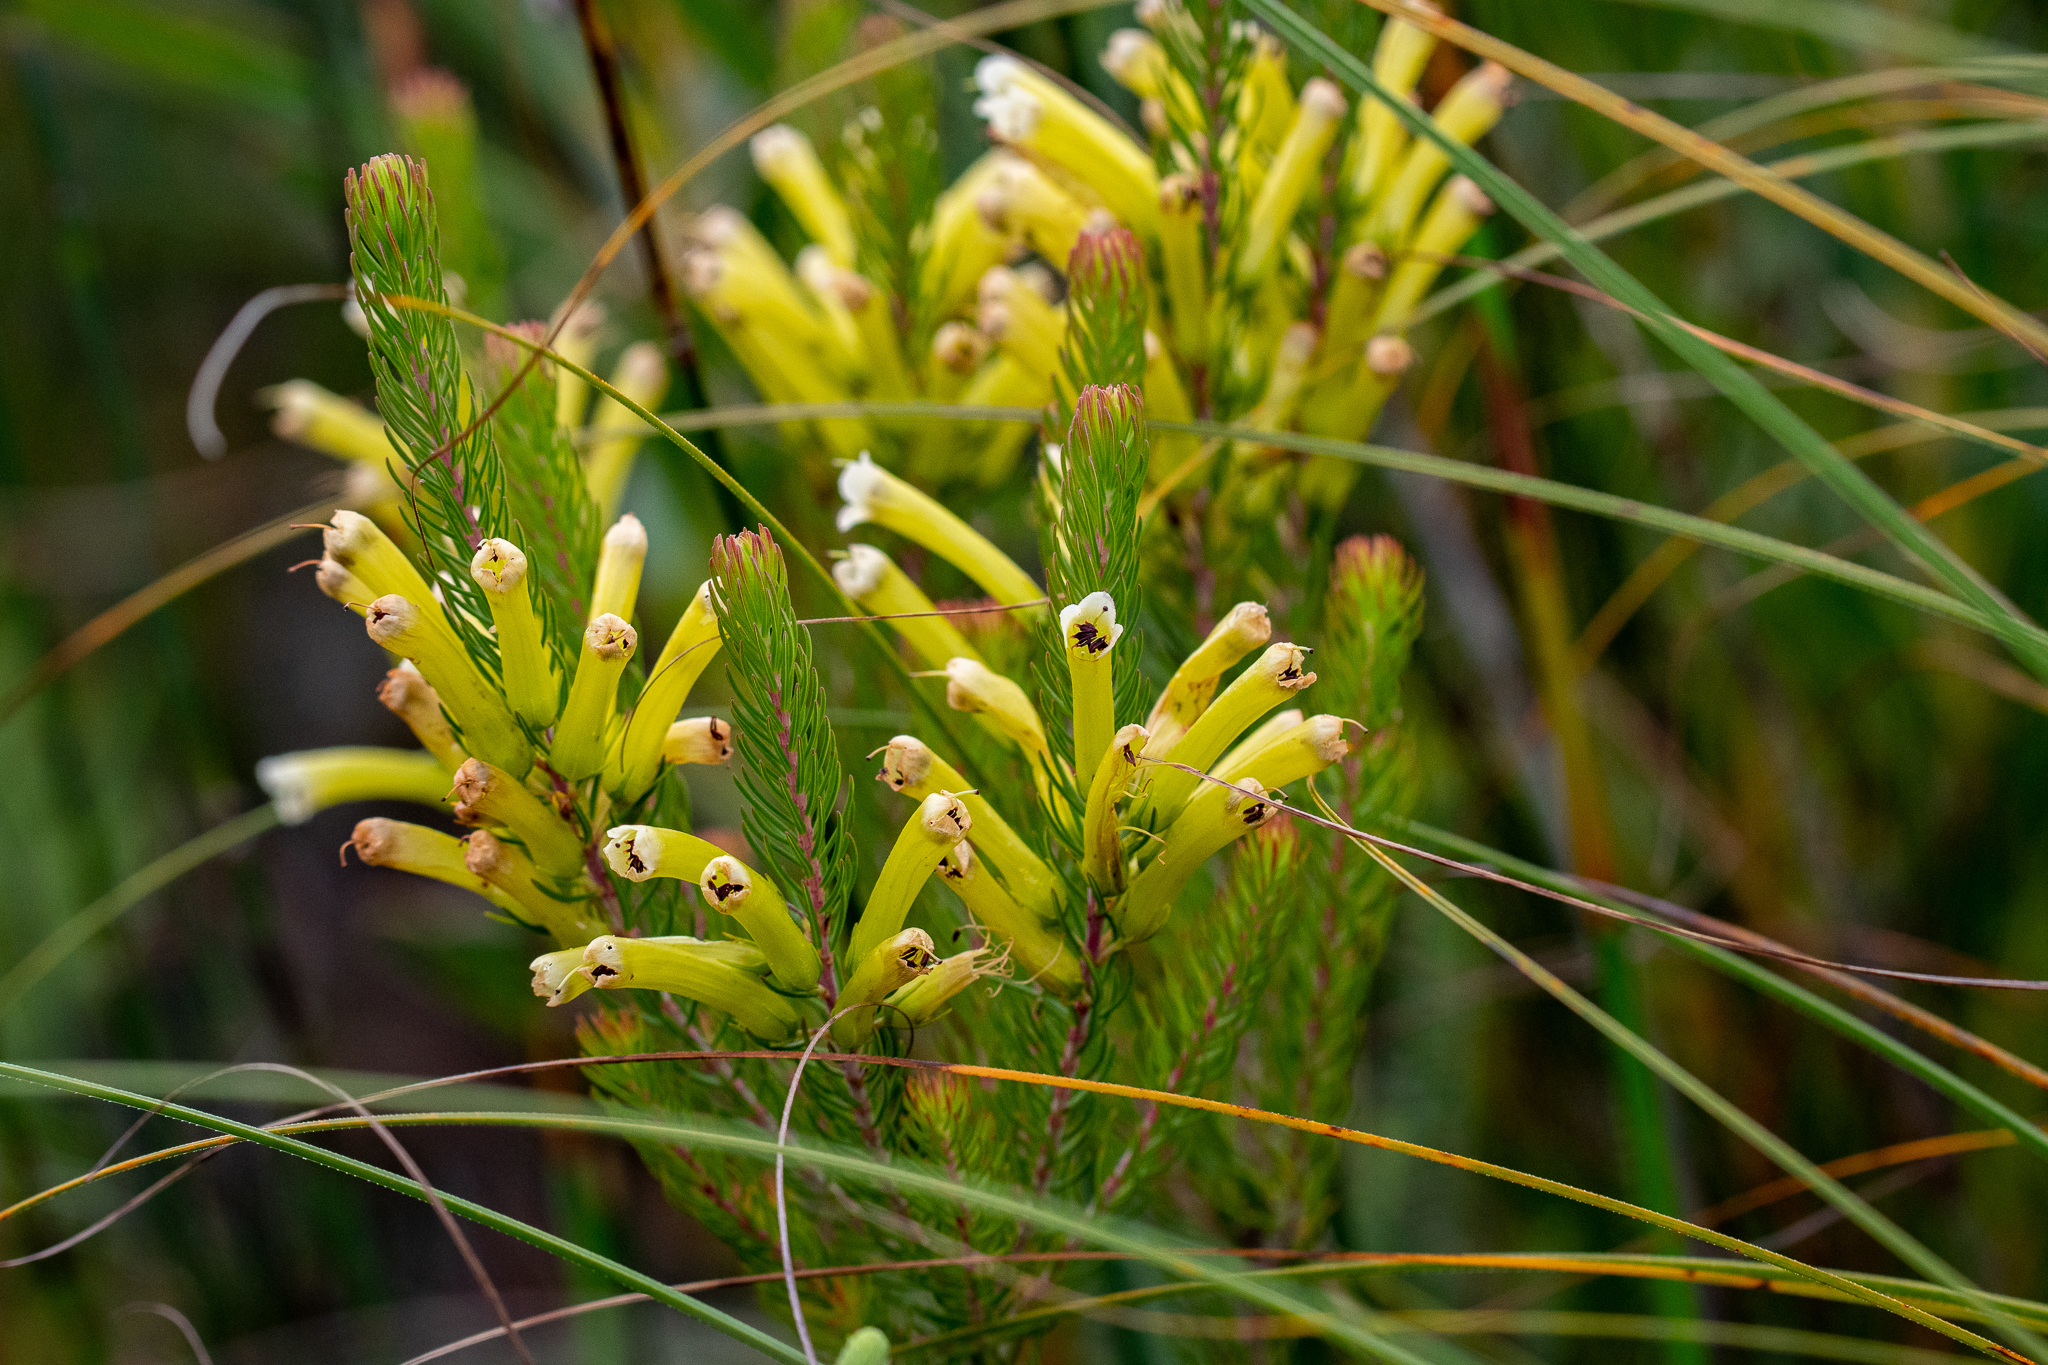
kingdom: Plantae
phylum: Tracheophyta
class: Magnoliopsida
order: Ericales
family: Ericaceae
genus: Erica
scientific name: Erica pinea
